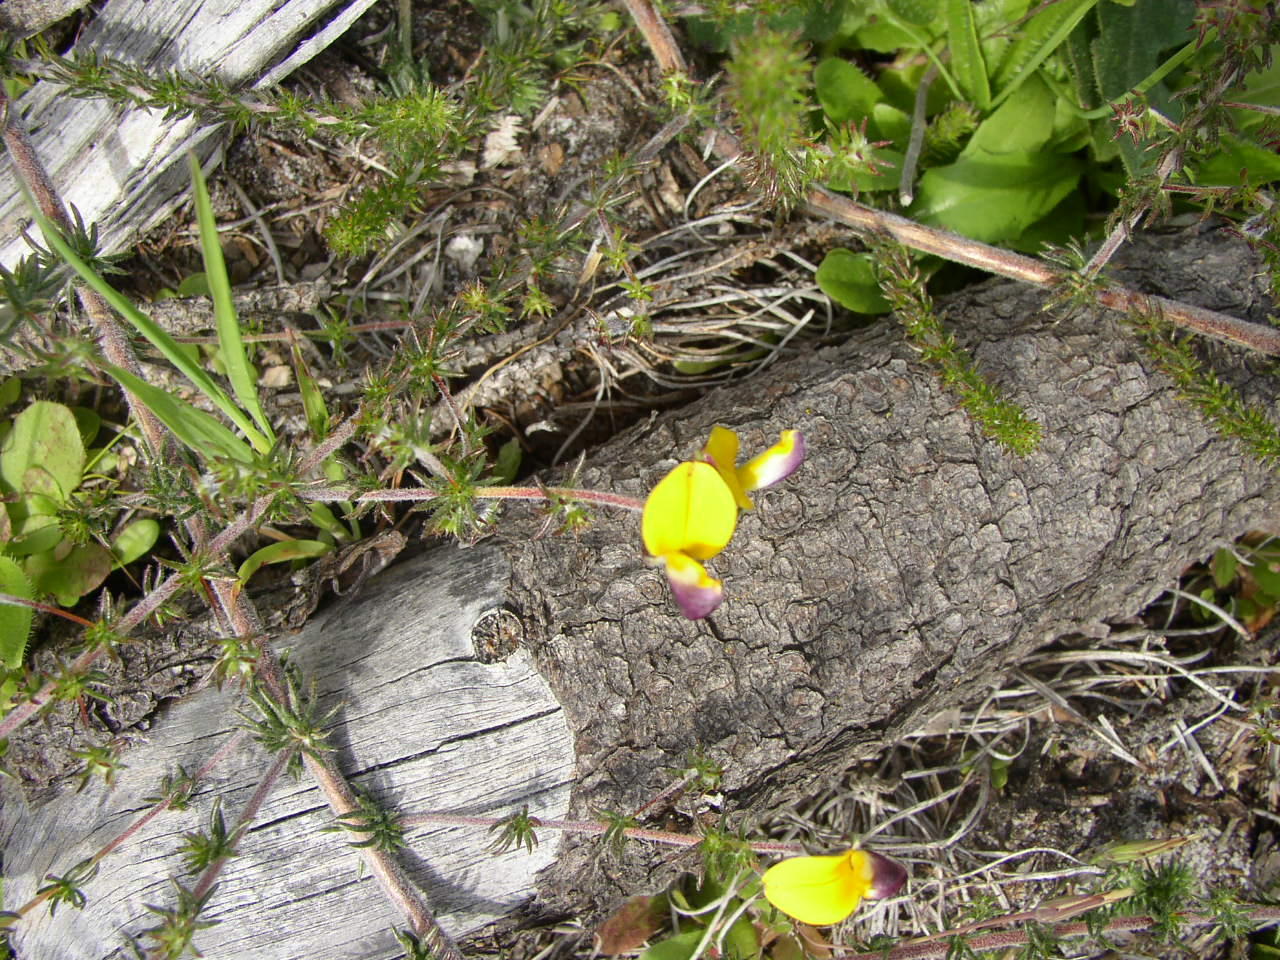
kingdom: Plantae
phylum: Tracheophyta
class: Magnoliopsida
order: Fabales
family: Fabaceae
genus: Aspalathus
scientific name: Aspalathus retroflexa
